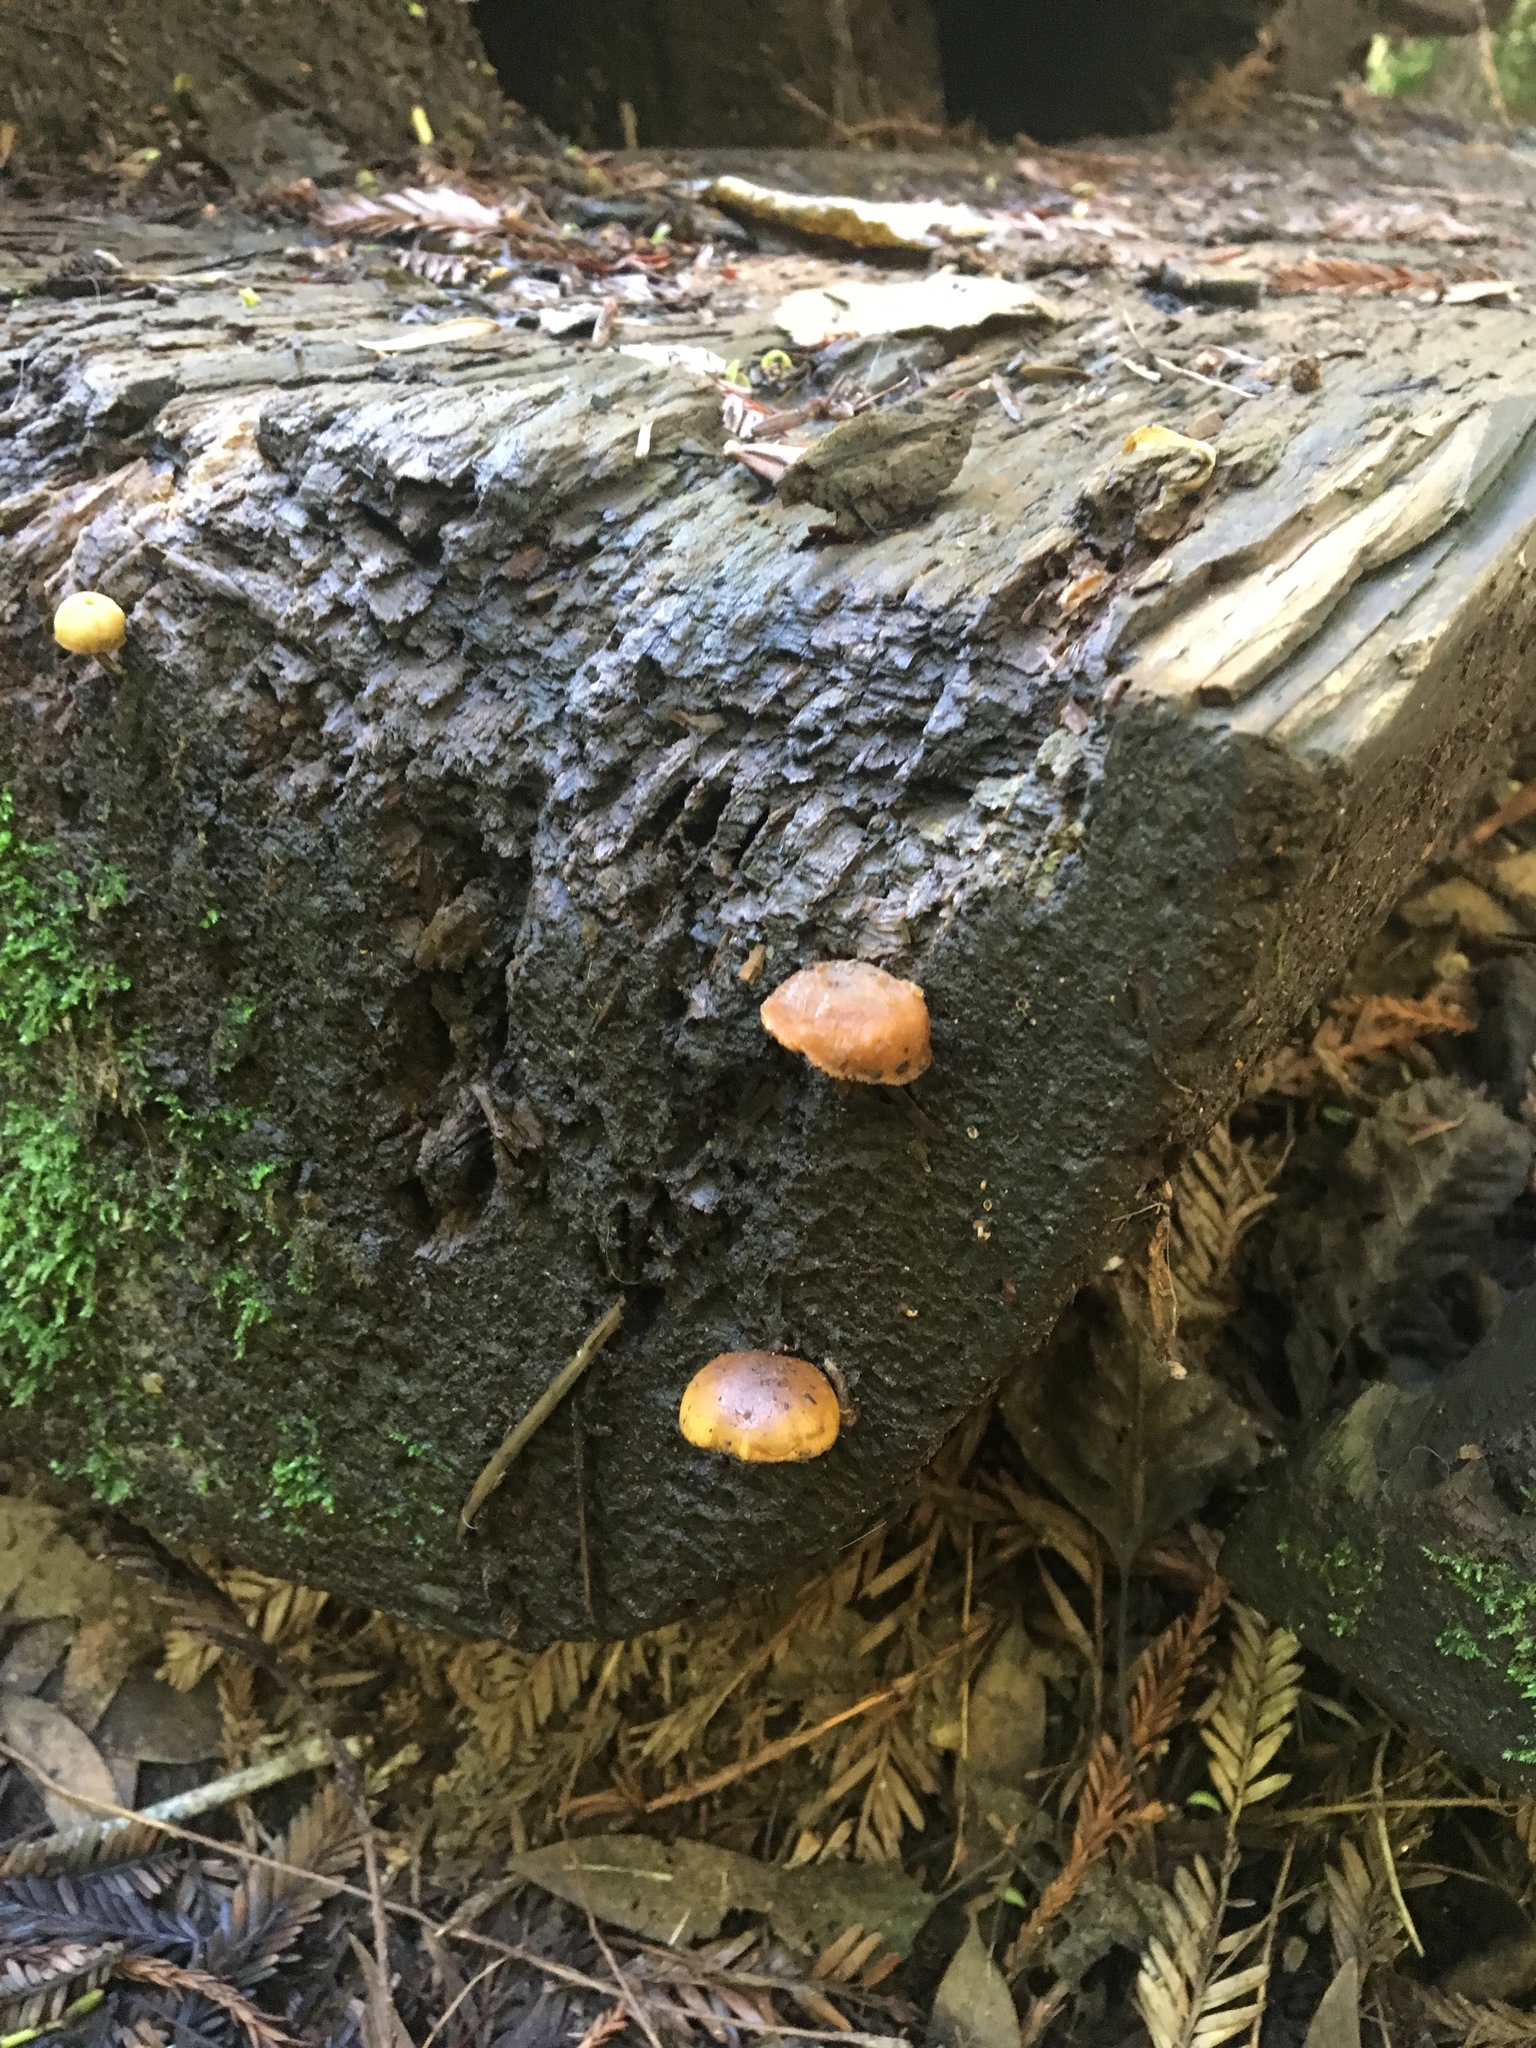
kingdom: Fungi
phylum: Basidiomycota
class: Agaricomycetes
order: Agaricales
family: Hymenogastraceae
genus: Galerina
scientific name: Galerina marginata
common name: Funeral bell
